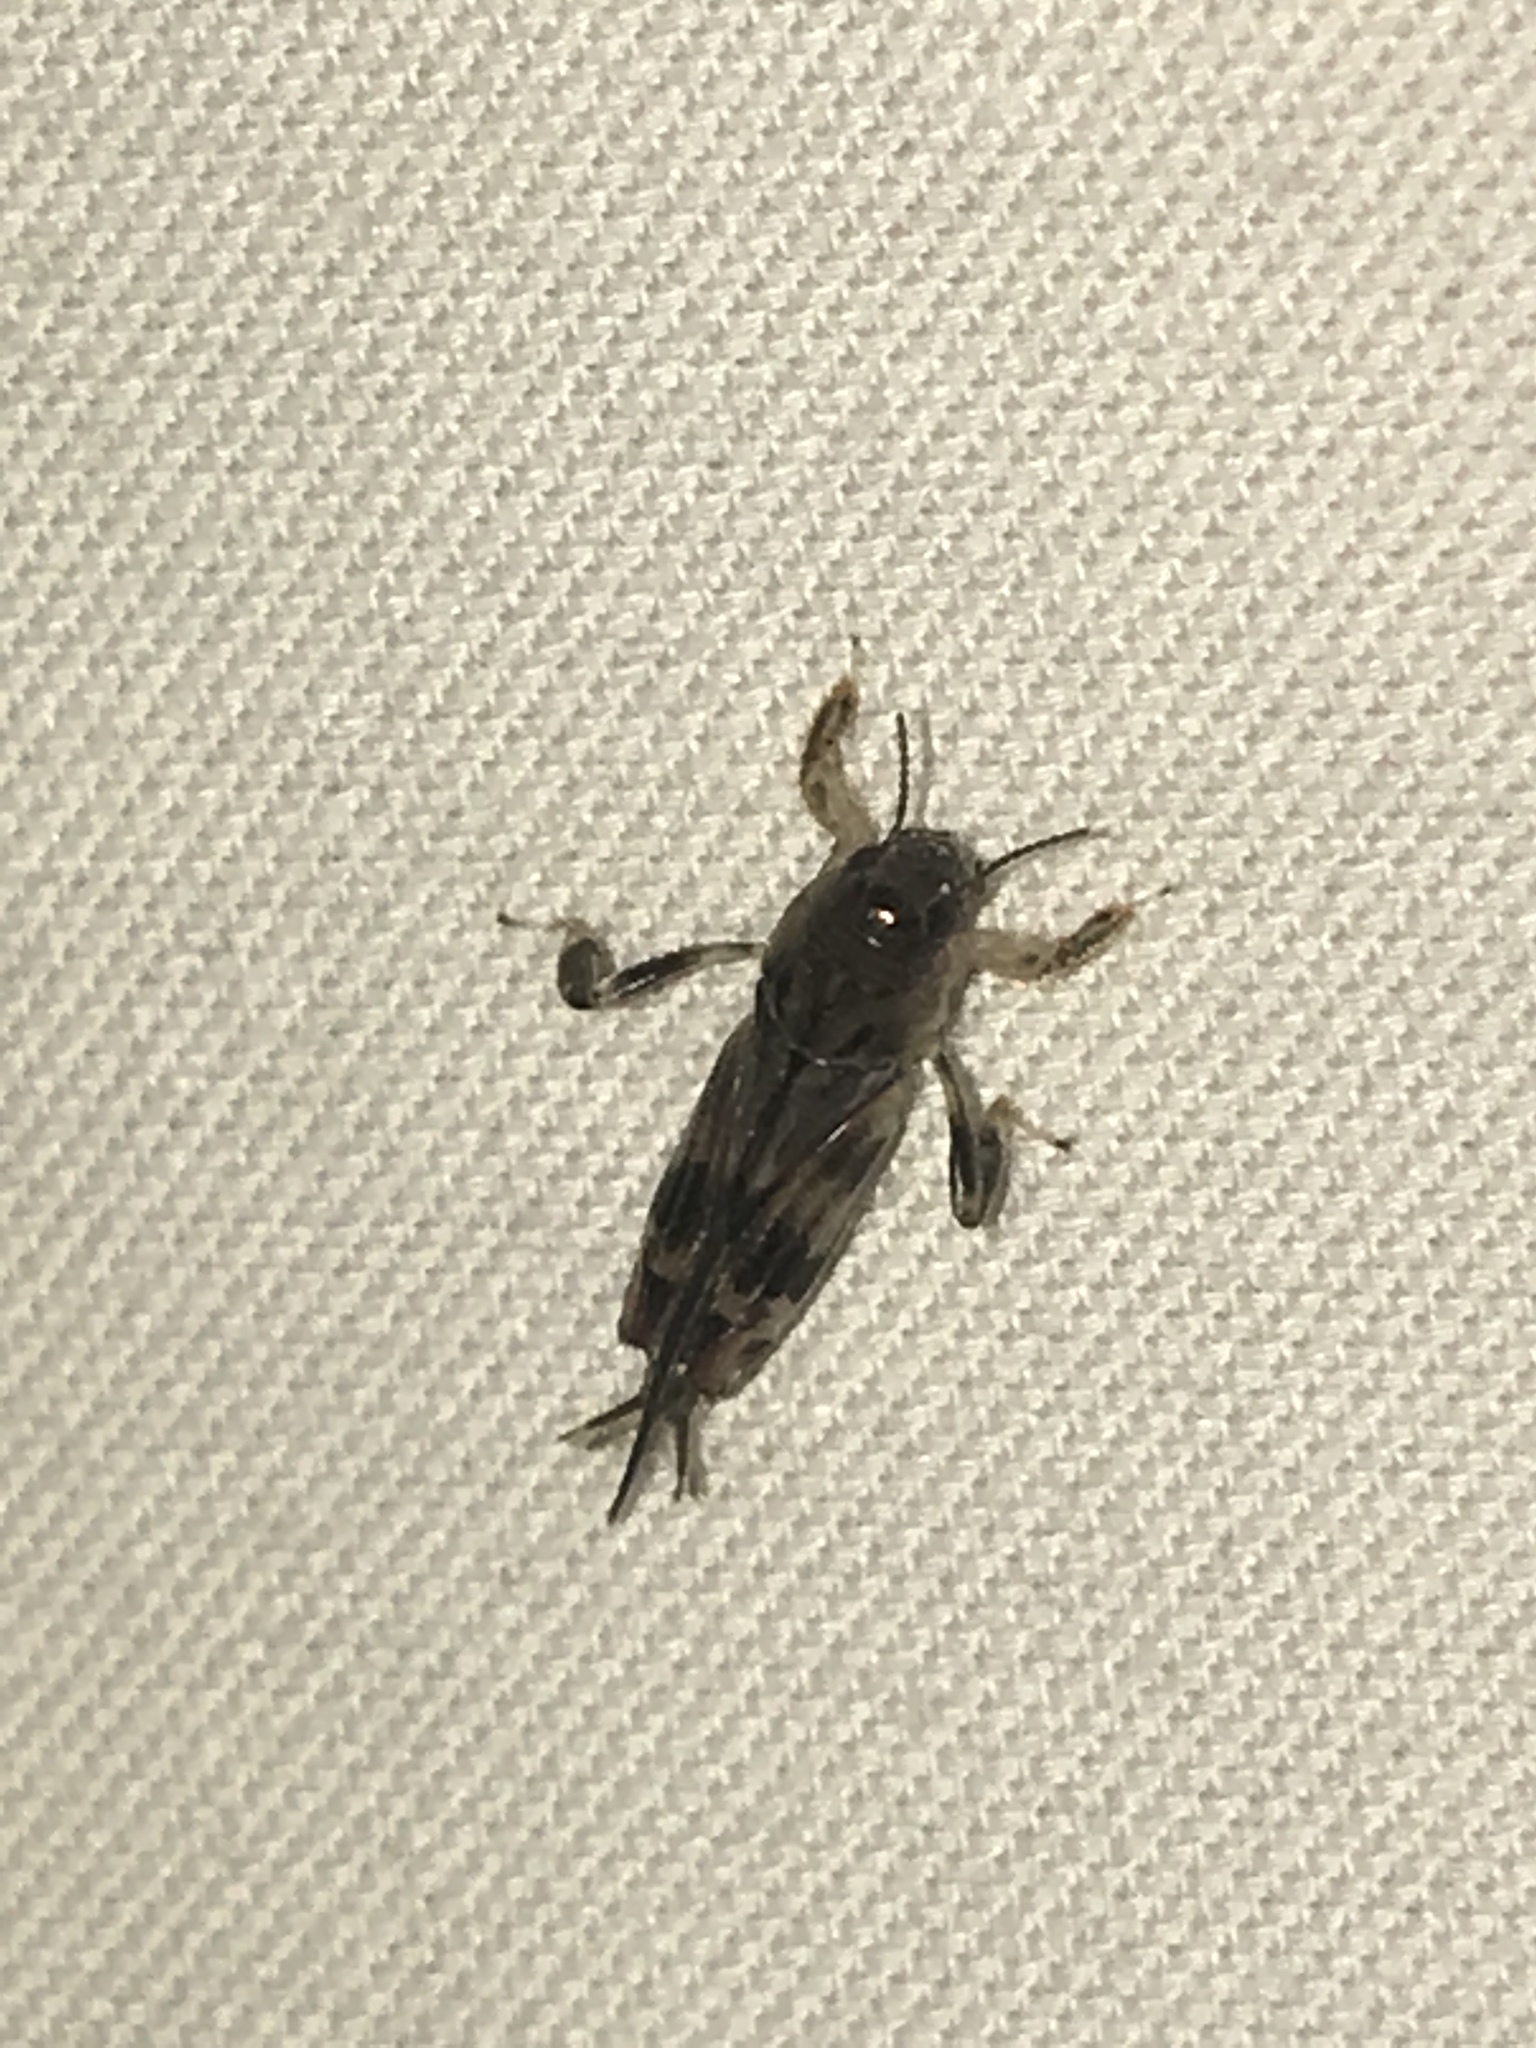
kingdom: Animalia
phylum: Arthropoda
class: Insecta
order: Orthoptera
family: Tridactylidae
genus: Neotridactylus
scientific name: Neotridactylus apicialis
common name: Larger pygmy locust
